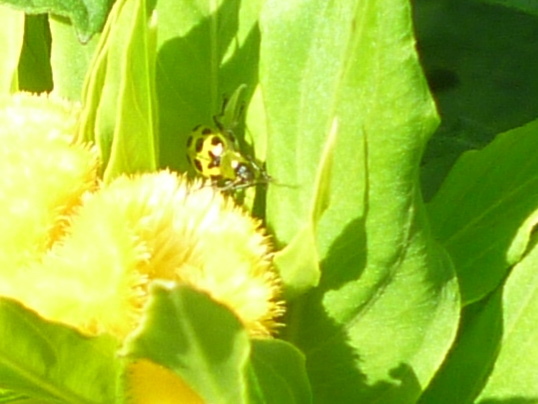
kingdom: Animalia
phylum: Arthropoda
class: Insecta
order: Coleoptera
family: Chrysomelidae
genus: Diabrotica
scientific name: Diabrotica undecimpunctata
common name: Spotted cucumber beetle
